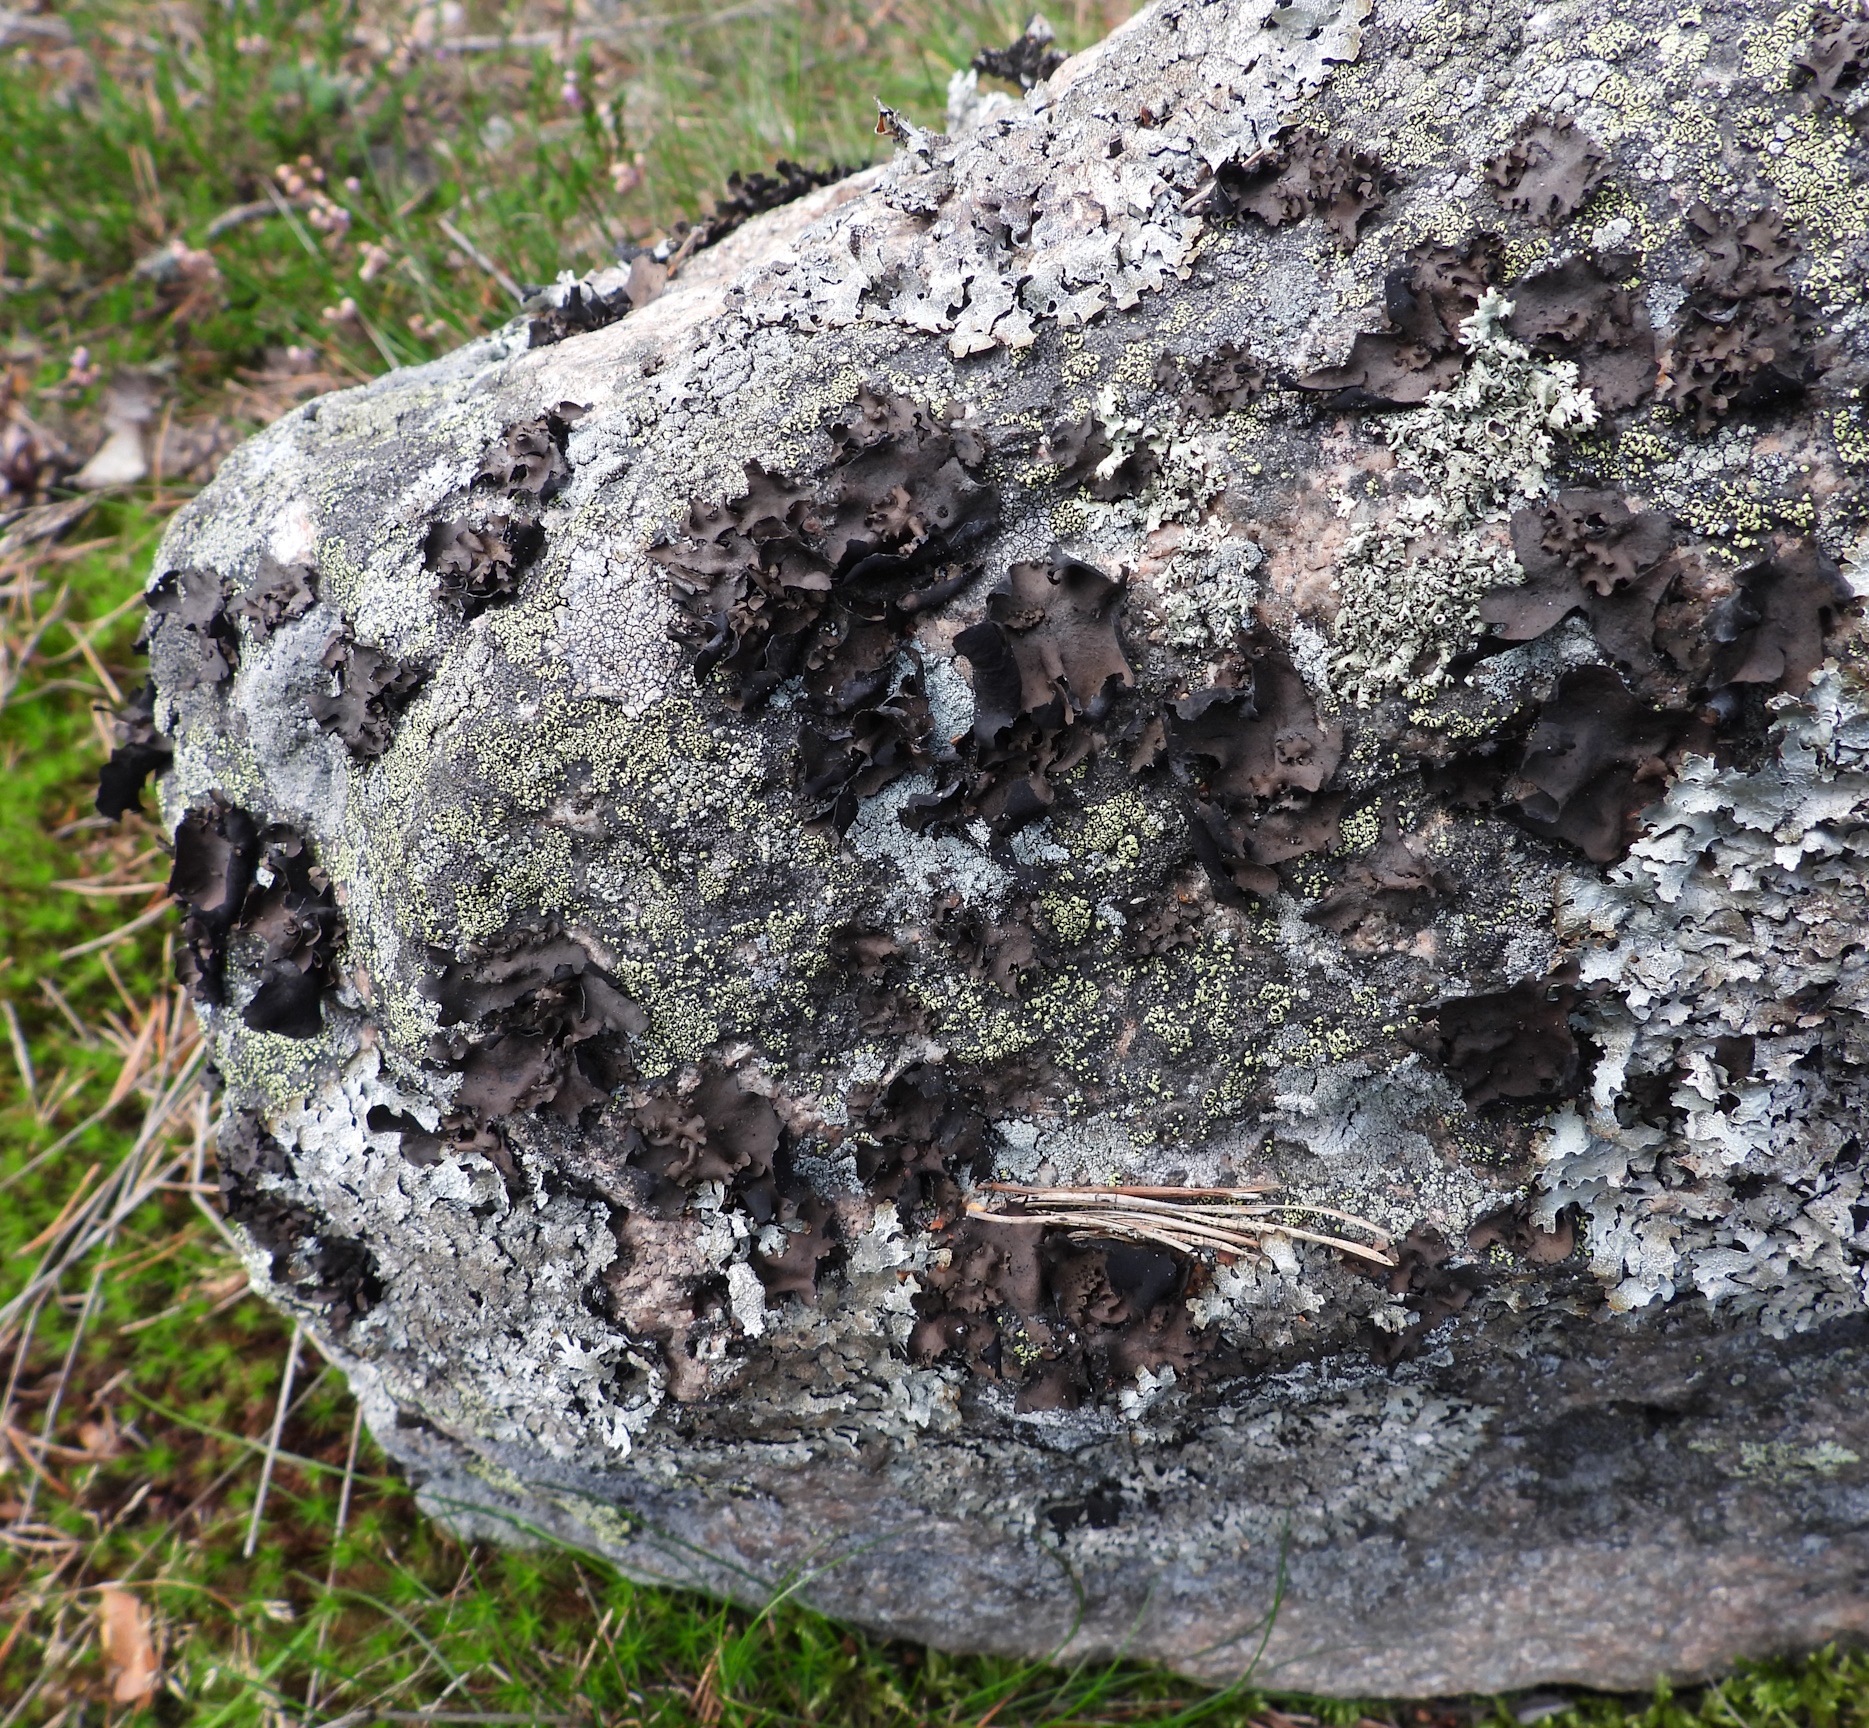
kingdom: Fungi
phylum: Ascomycota
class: Lecanoromycetes
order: Umbilicariales
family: Umbilicariaceae
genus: Umbilicaria
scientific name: Umbilicaria polyphylla
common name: Petalled rocktripe lichen
